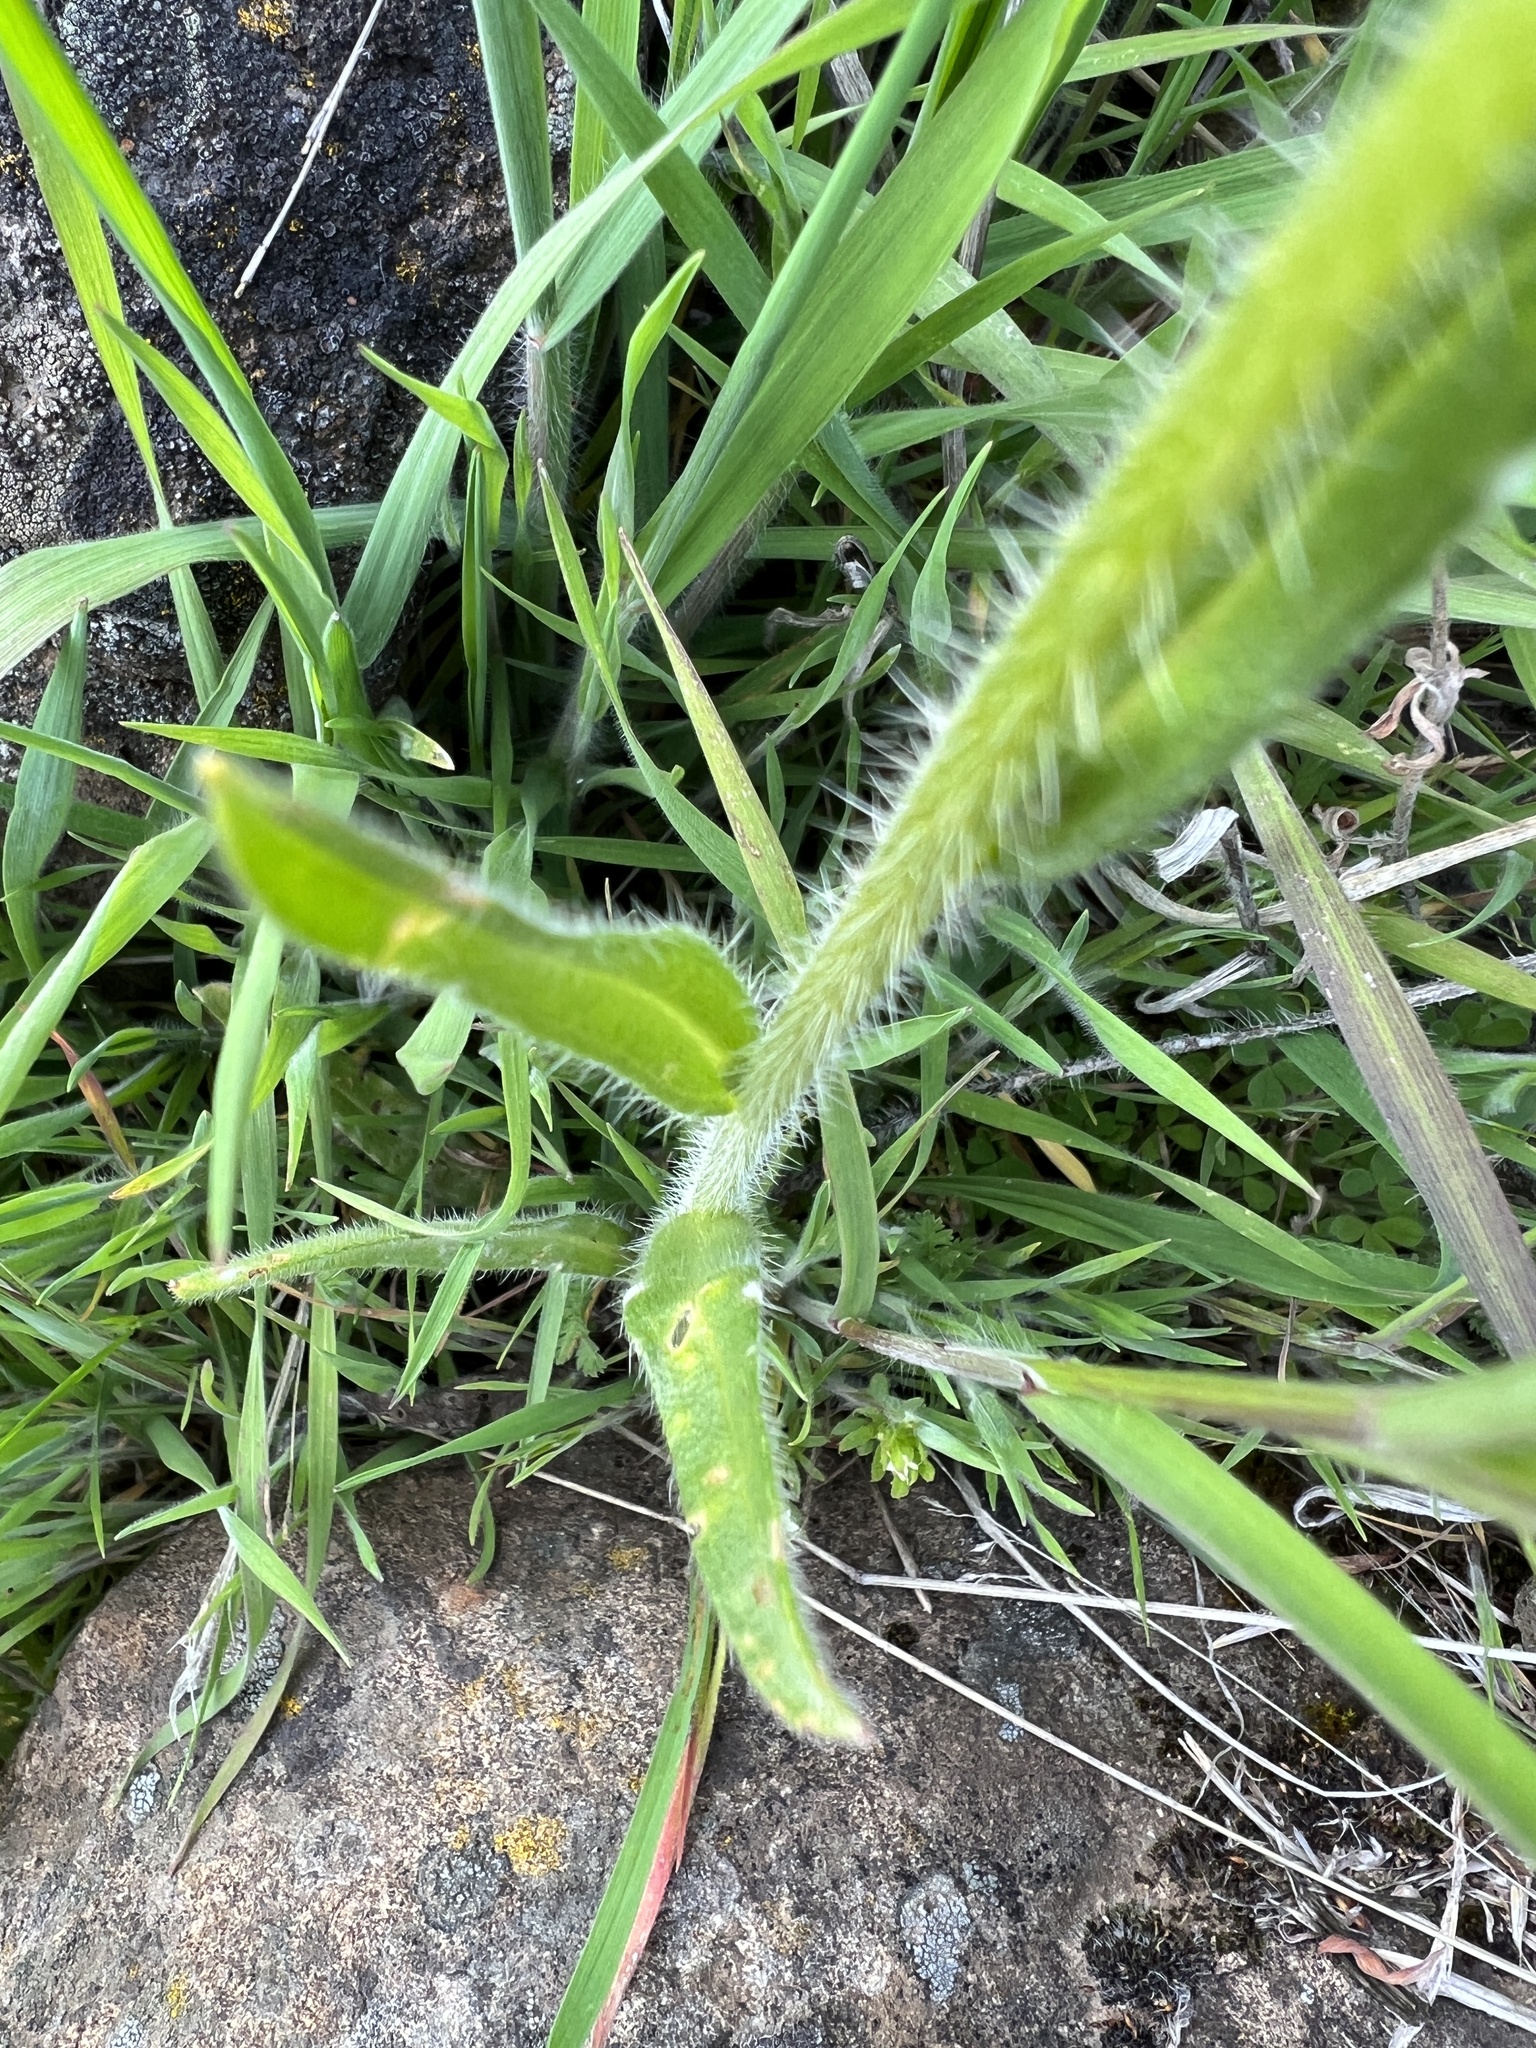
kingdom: Plantae
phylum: Tracheophyta
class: Magnoliopsida
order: Boraginales
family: Boraginaceae
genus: Amsinckia
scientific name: Amsinckia menziesii
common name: Menzies' fiddleneck
